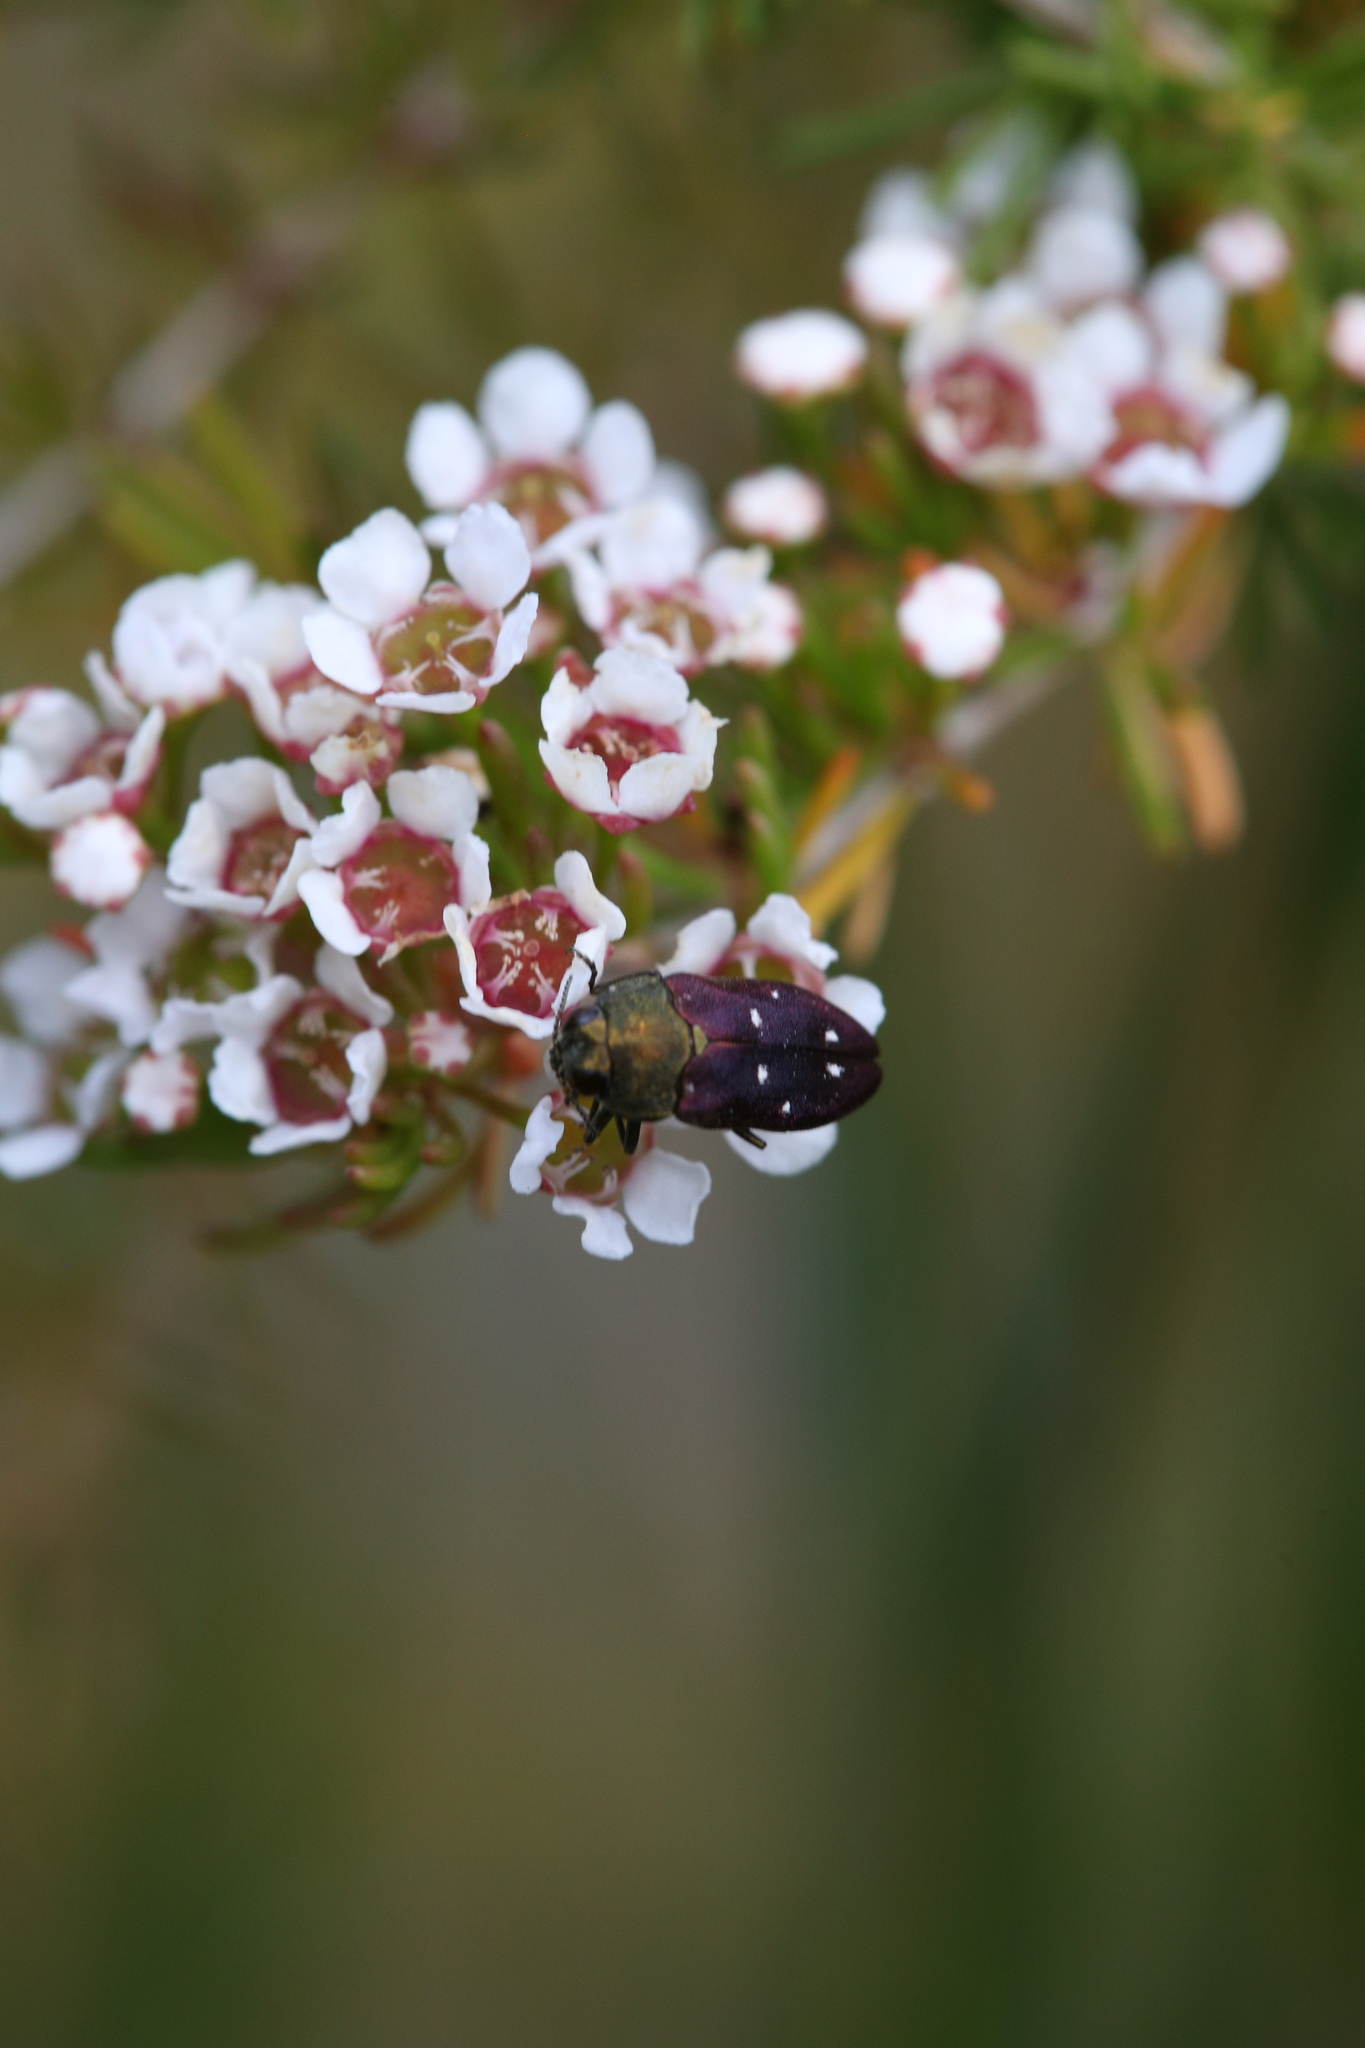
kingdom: Animalia
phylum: Arthropoda
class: Insecta
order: Coleoptera
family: Buprestidae
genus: Pachycisseis
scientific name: Pachycisseis bicolor
